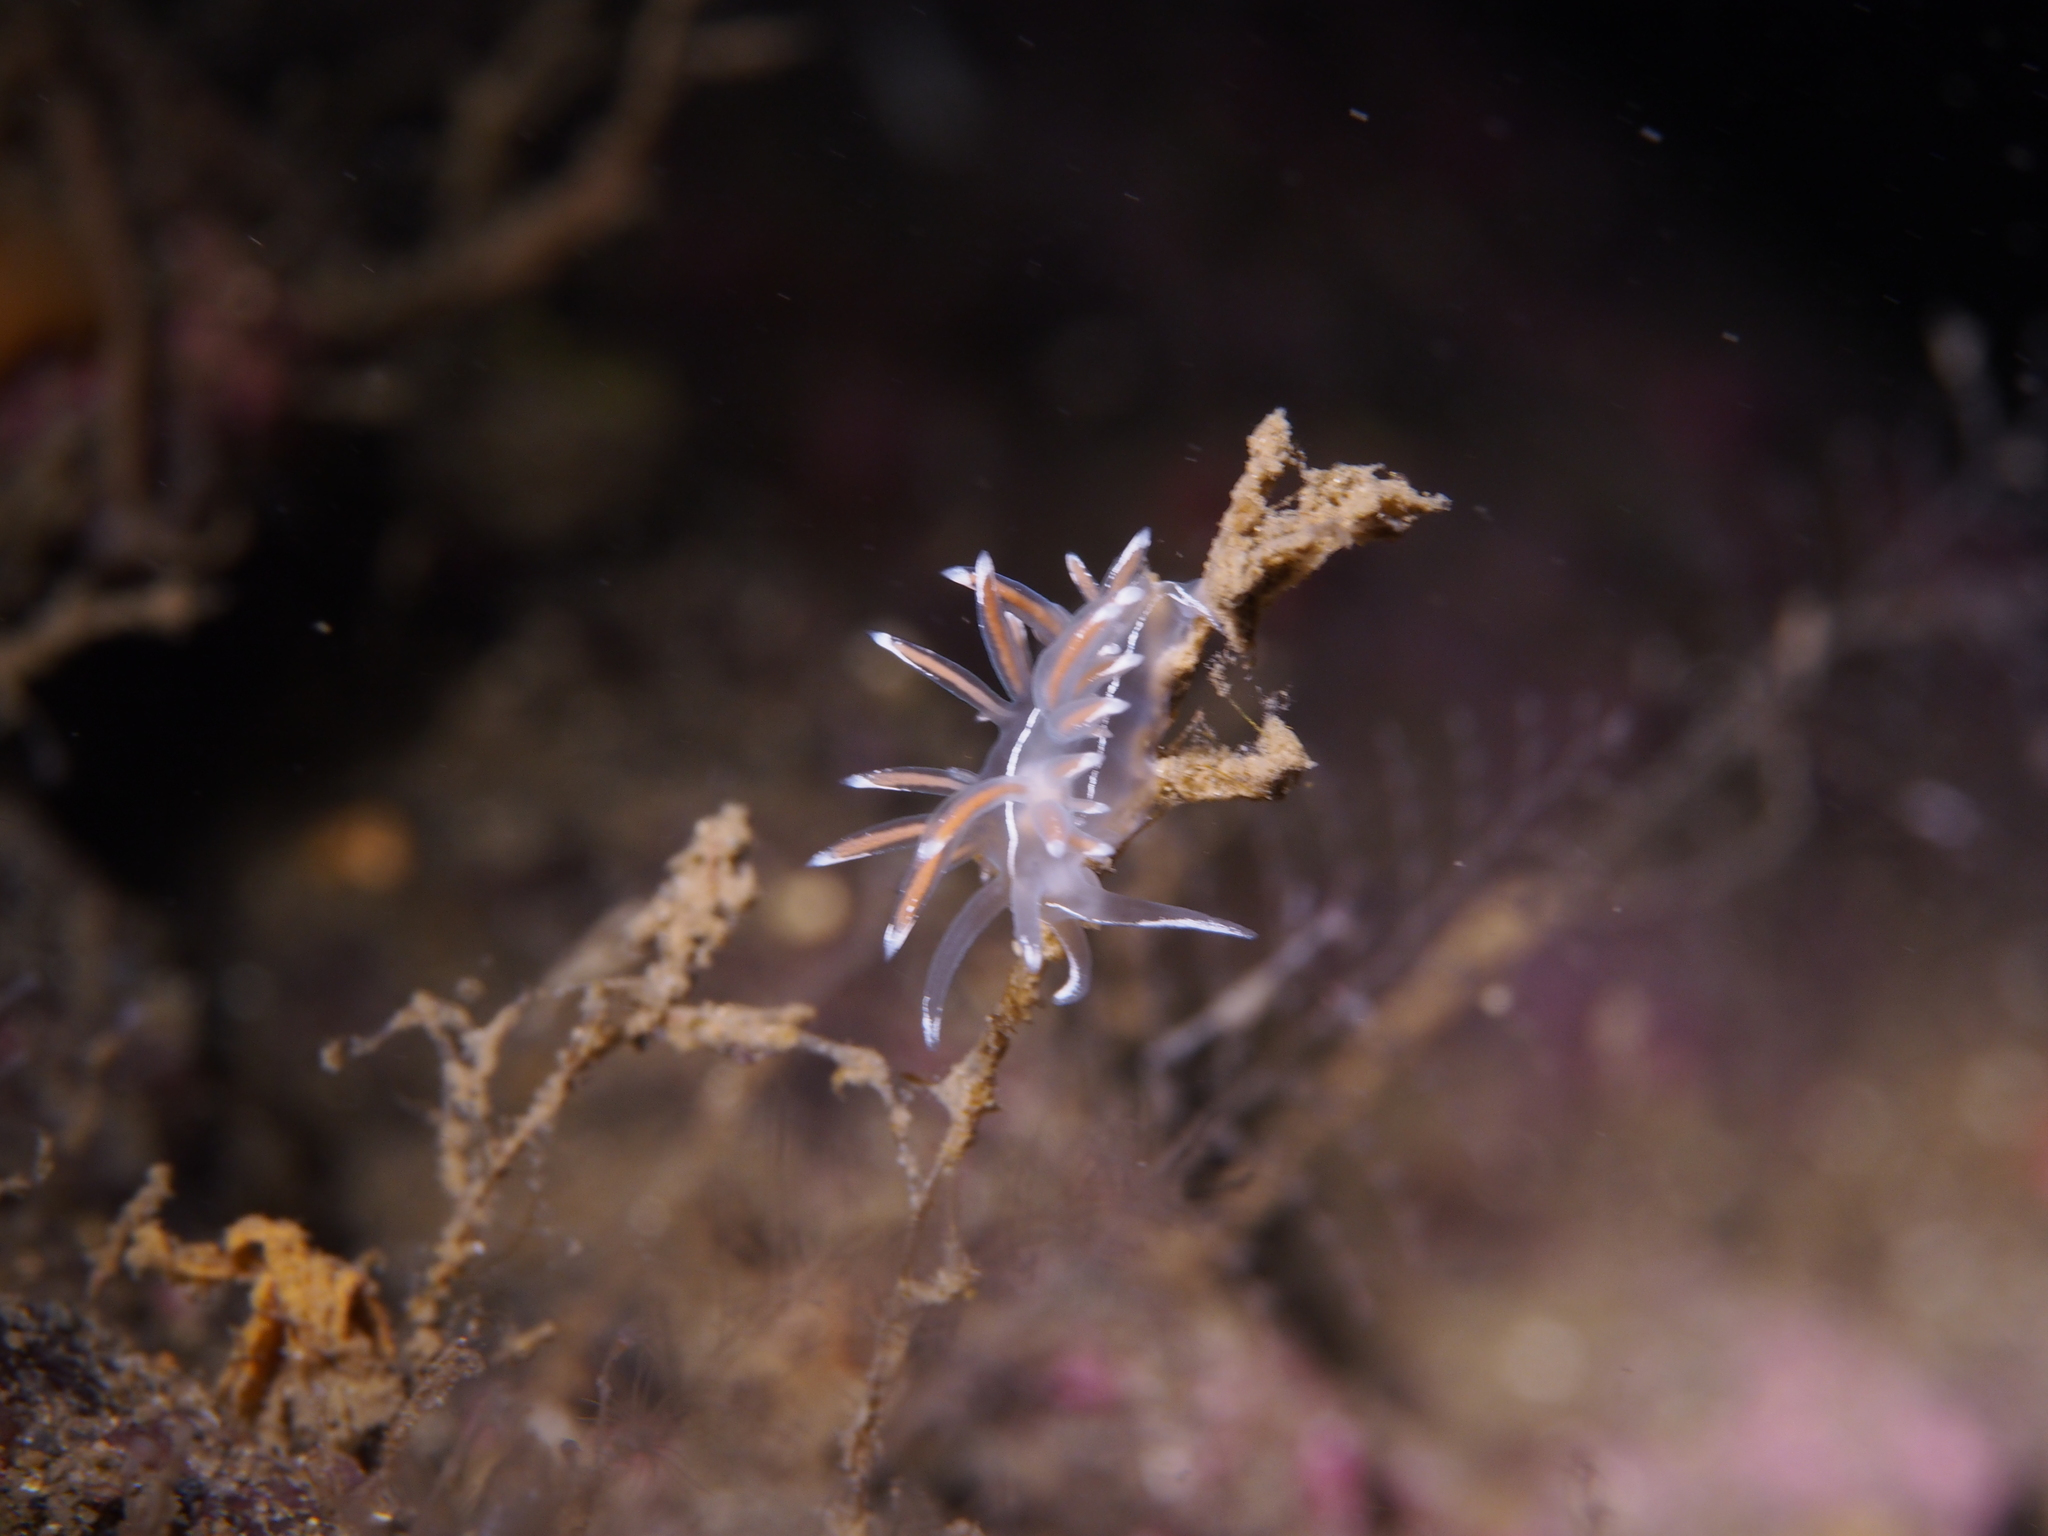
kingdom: Animalia
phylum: Mollusca
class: Gastropoda
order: Nudibranchia
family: Coryphellidae
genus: Coryphella
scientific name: Coryphella lineata
